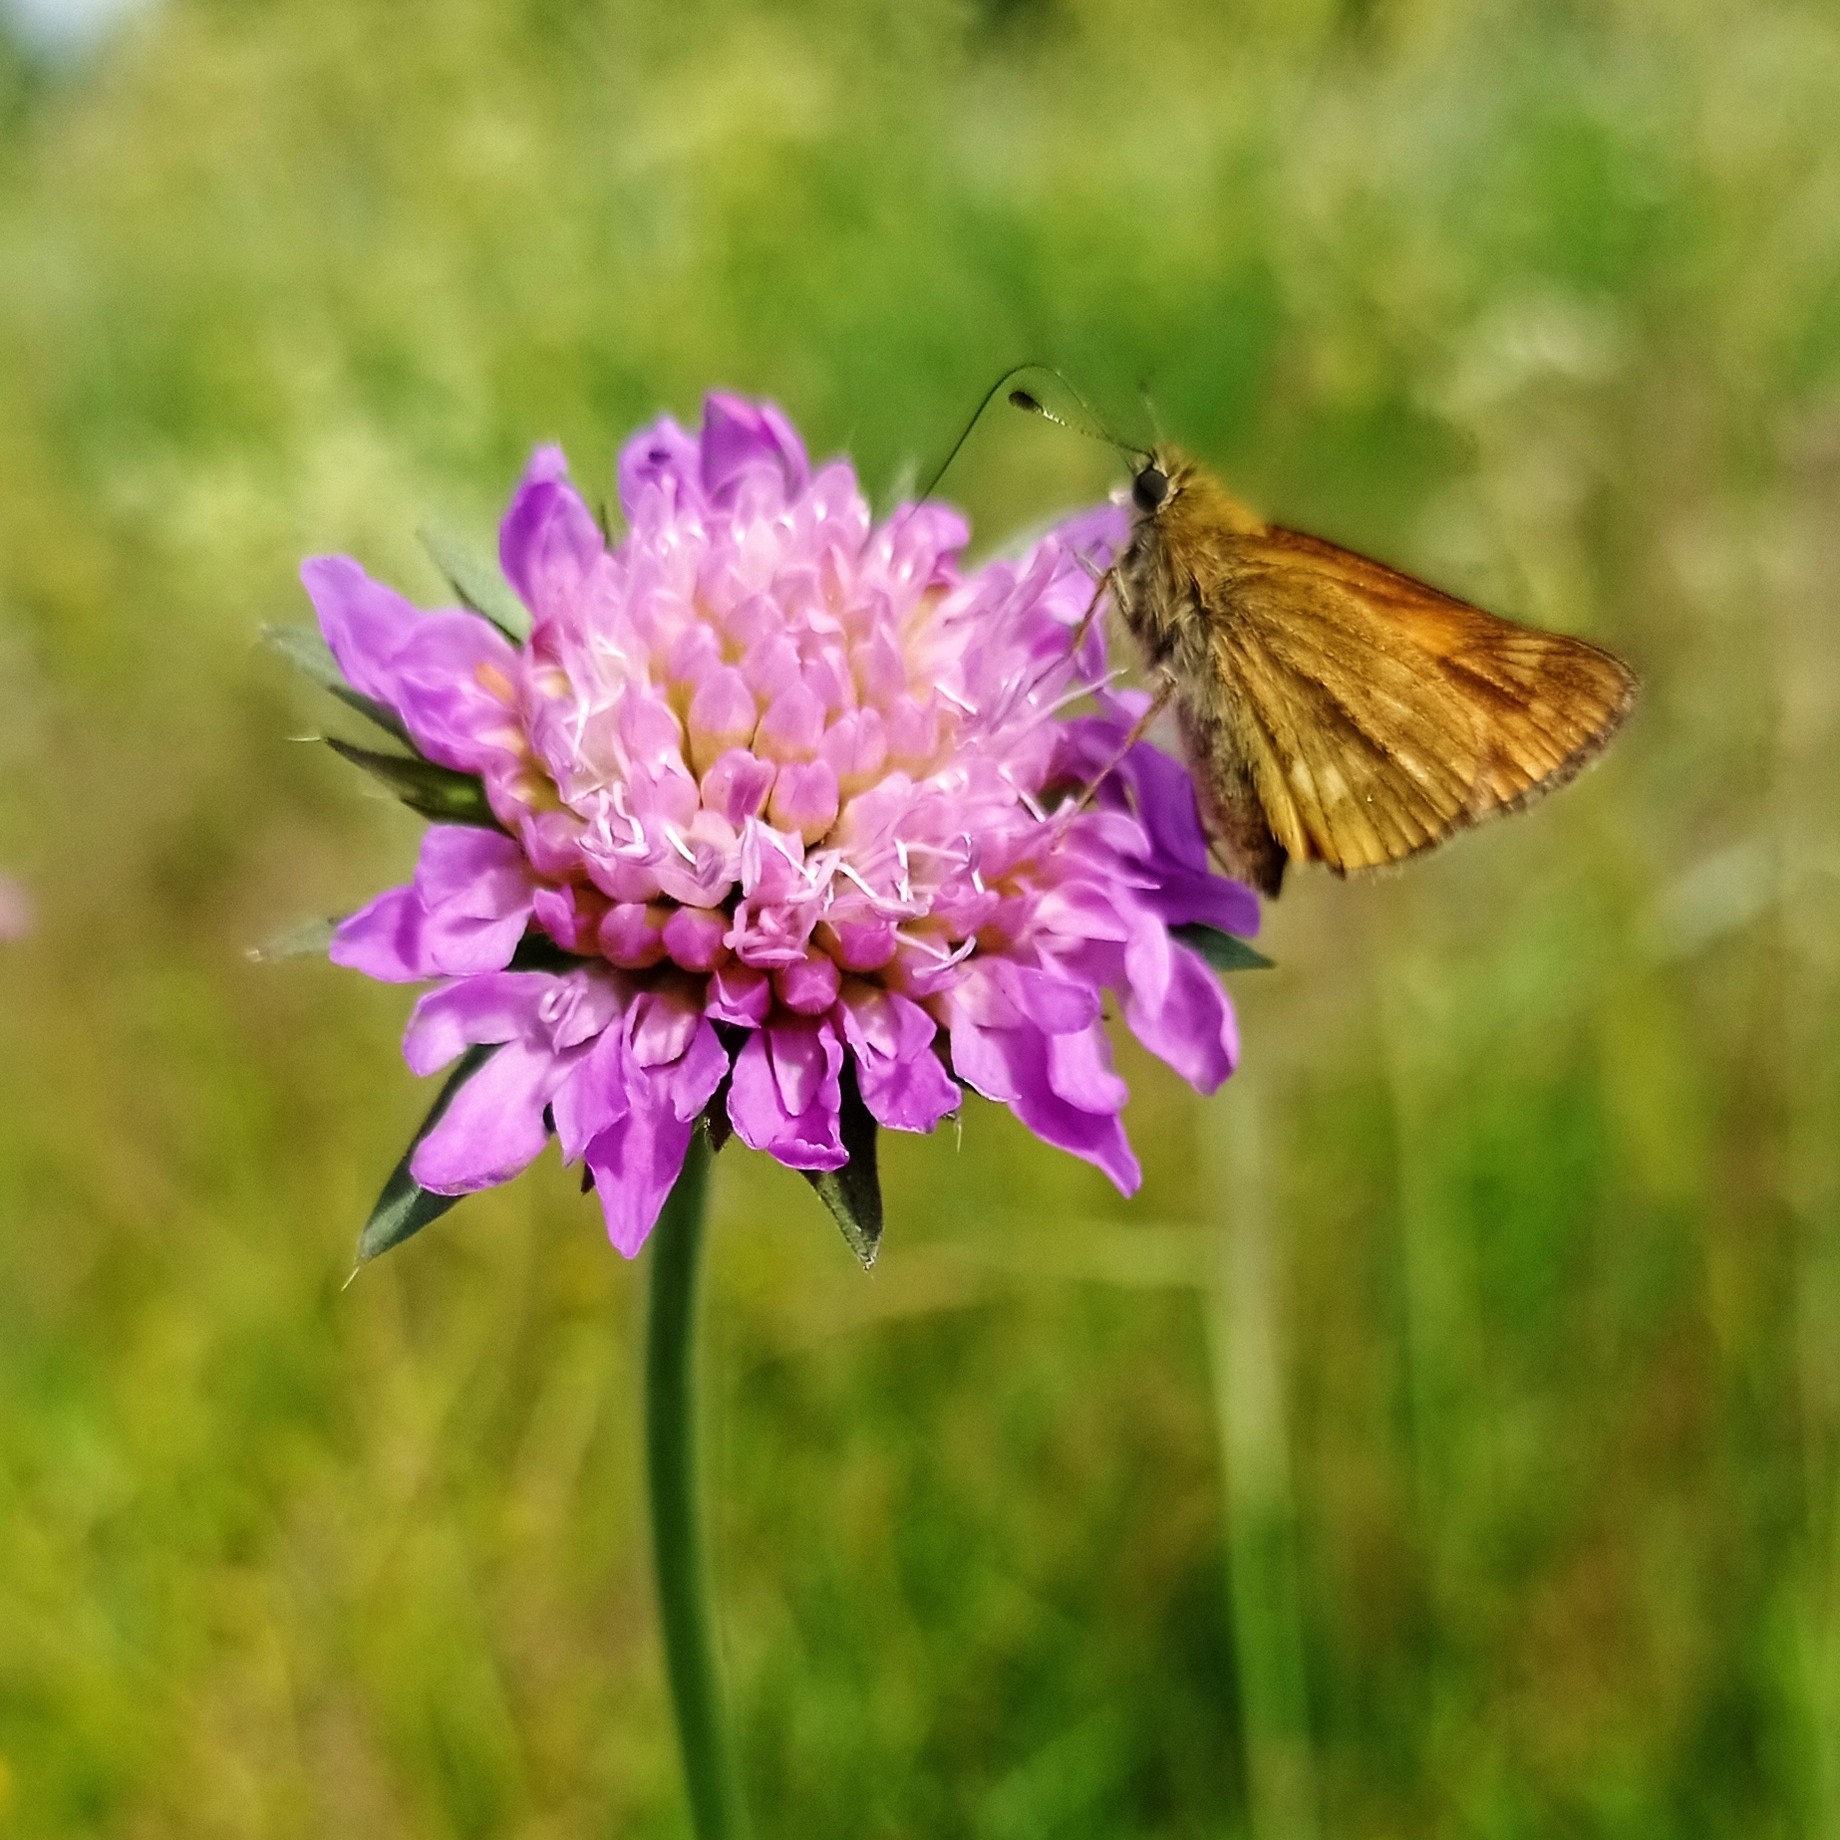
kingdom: Plantae
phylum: Tracheophyta
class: Magnoliopsida
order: Dipsacales
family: Caprifoliaceae
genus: Knautia
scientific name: Knautia arvensis
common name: Field scabiosa
